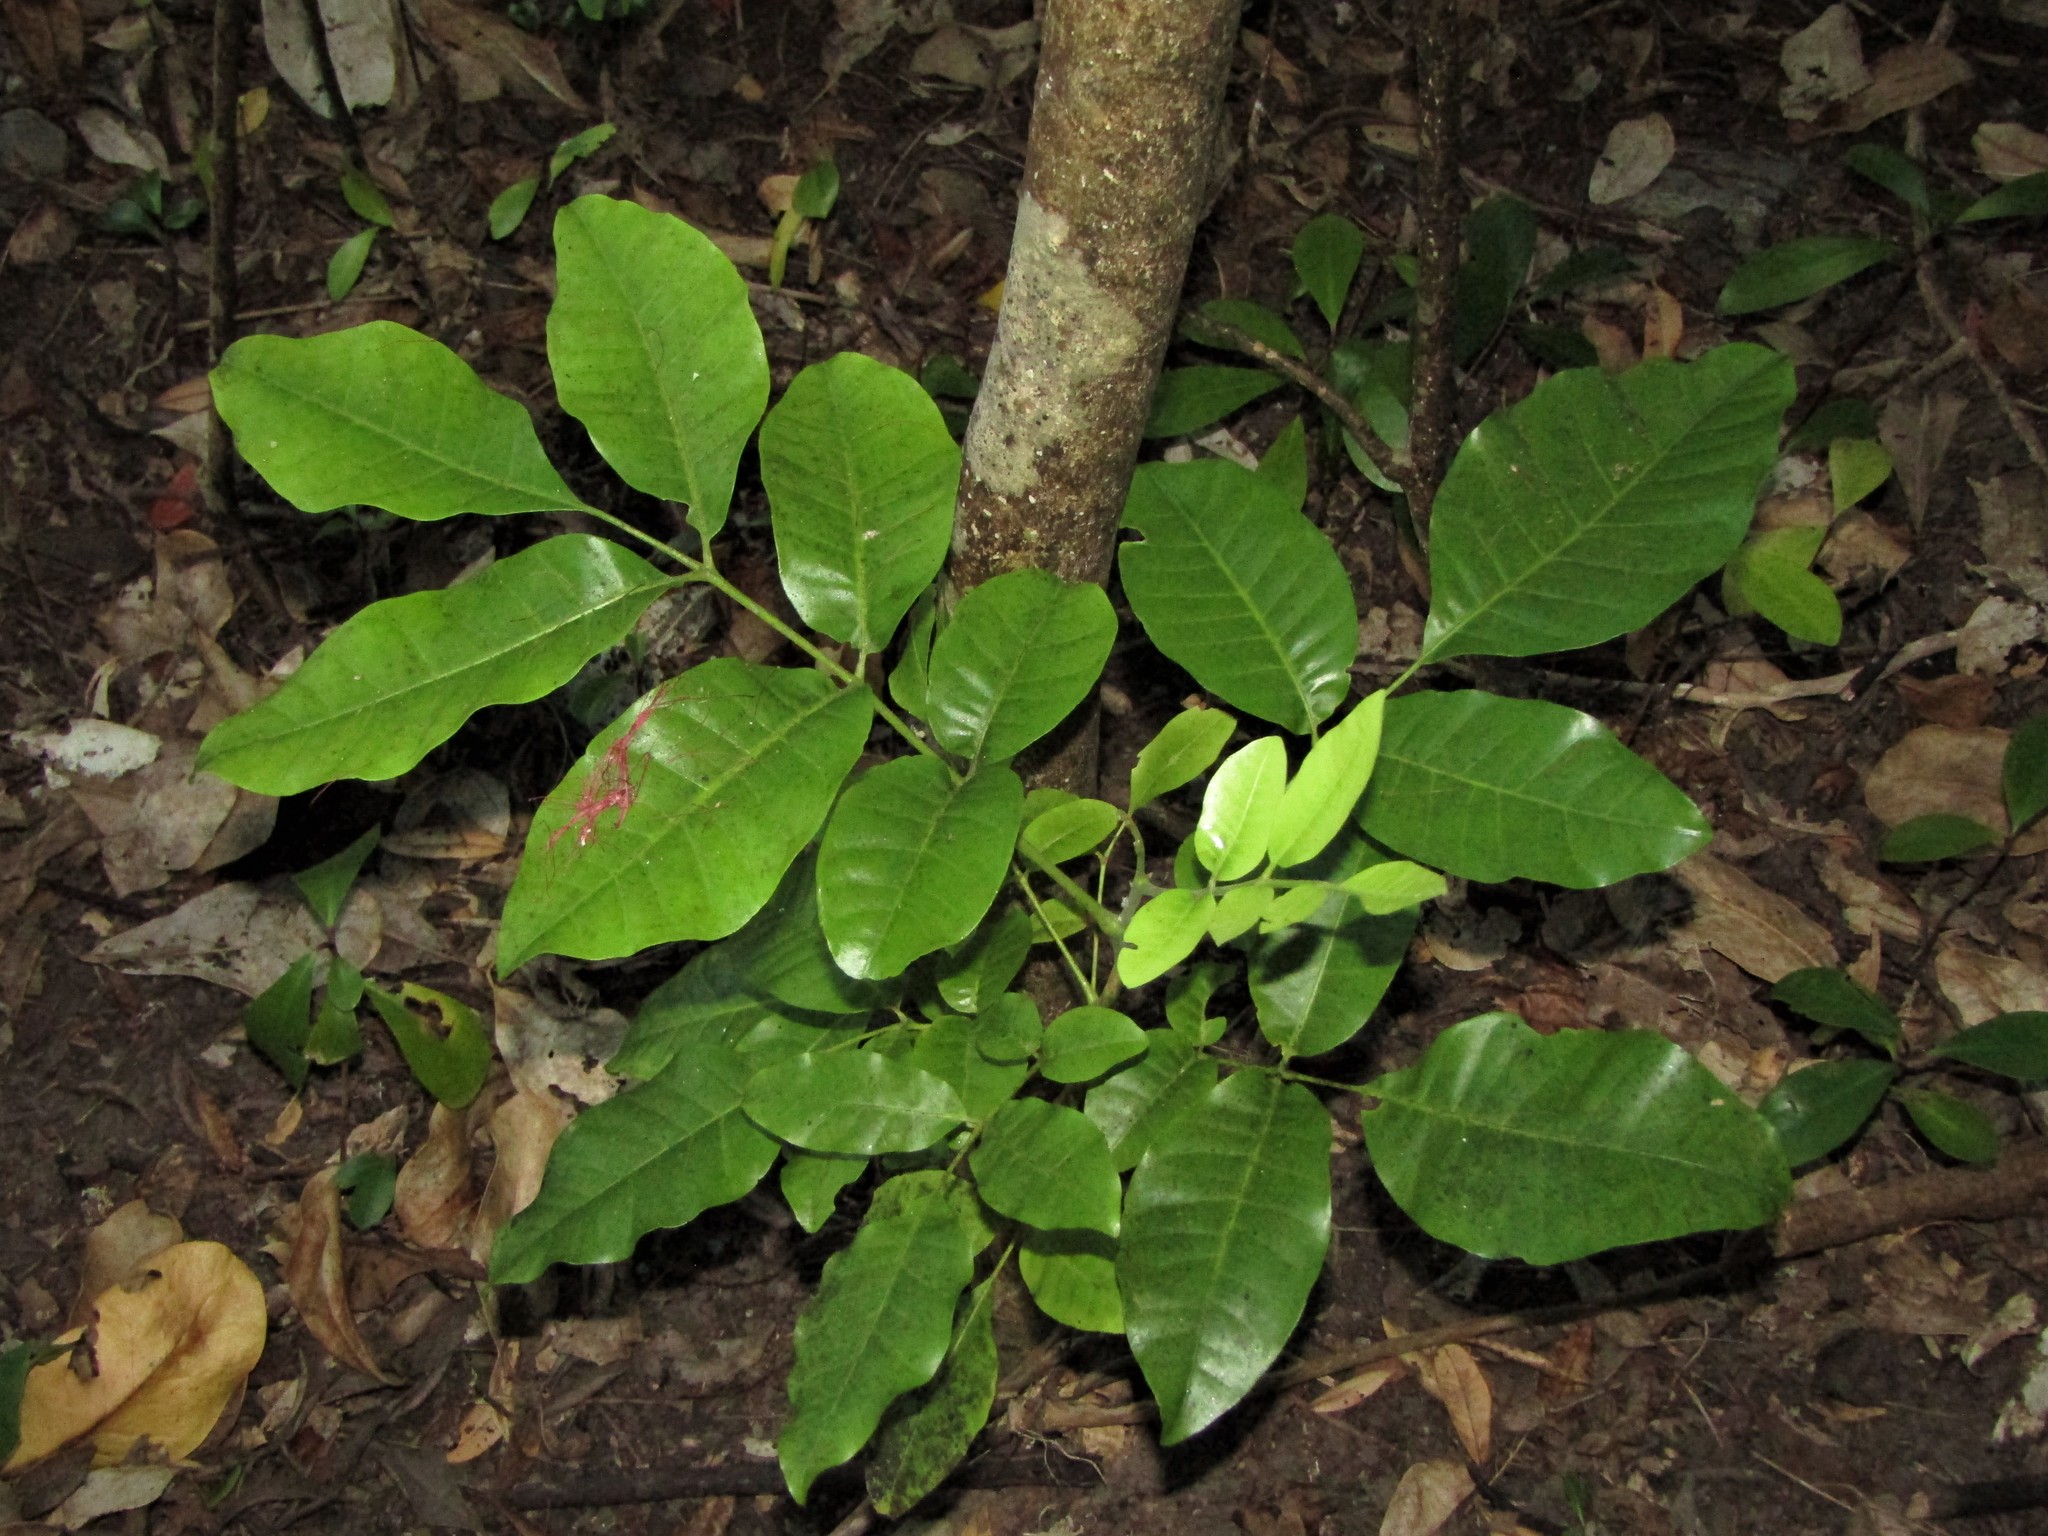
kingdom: Plantae
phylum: Tracheophyta
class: Magnoliopsida
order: Sapindales
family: Meliaceae
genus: Didymocheton
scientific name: Didymocheton spectabilis
